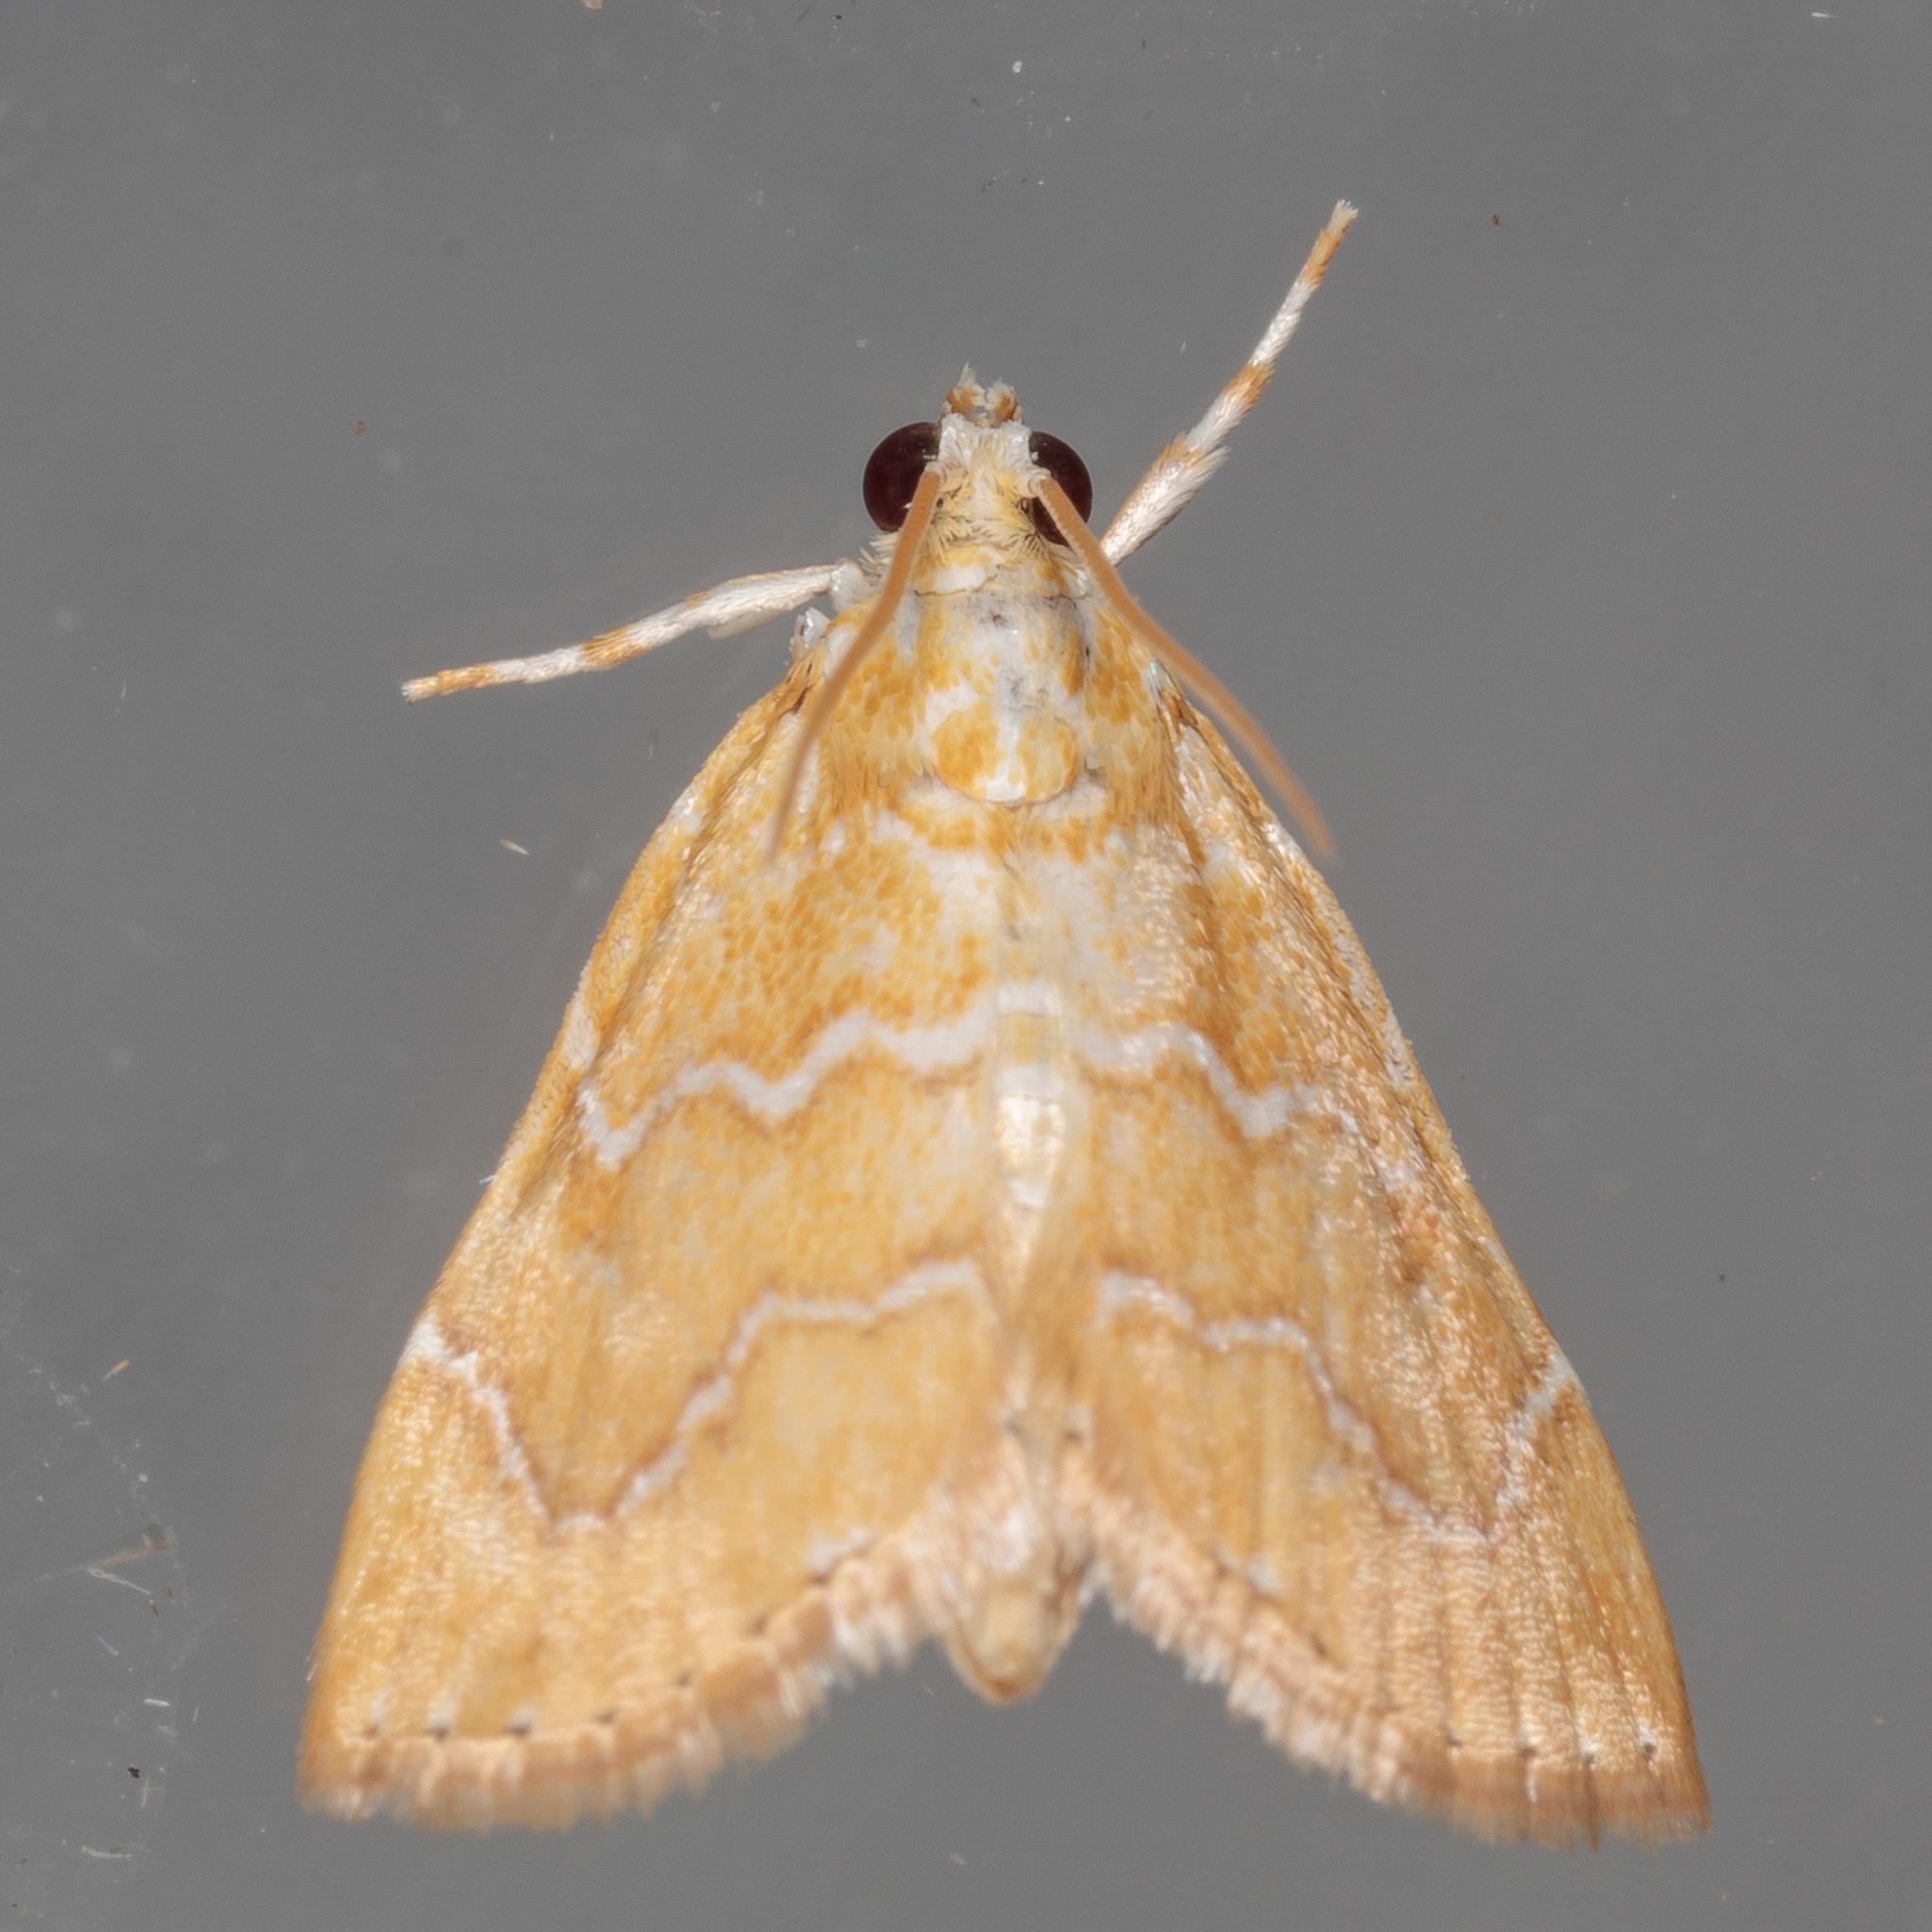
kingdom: Animalia
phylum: Arthropoda
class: Insecta
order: Lepidoptera
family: Crambidae
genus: Glaphyria
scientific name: Glaphyria sesquistrialis
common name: White-roped glaphyria
